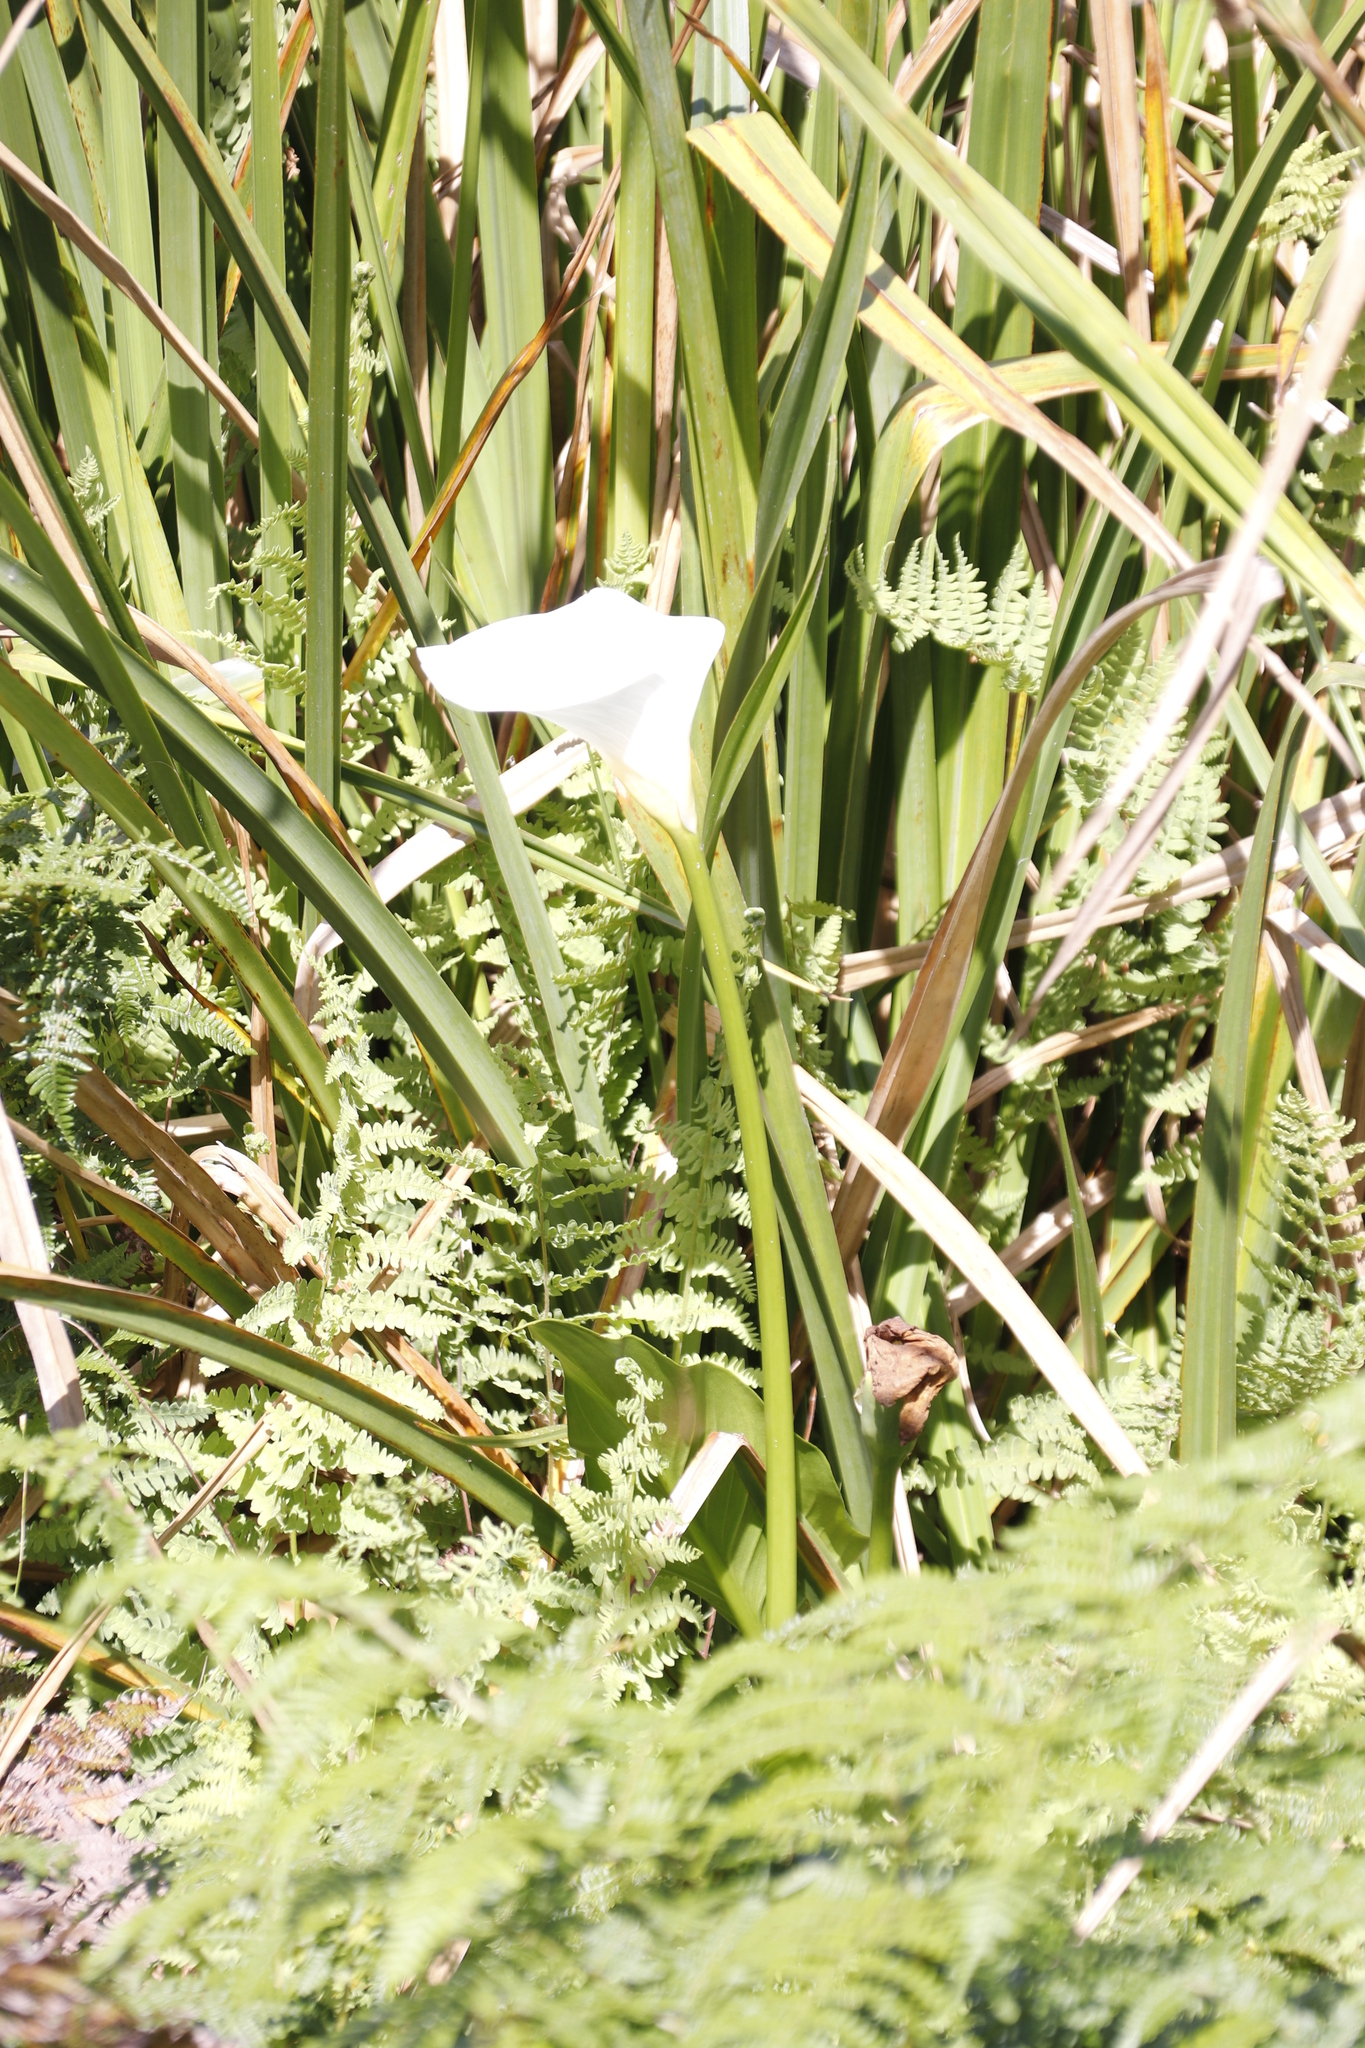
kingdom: Plantae
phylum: Tracheophyta
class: Liliopsida
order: Alismatales
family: Araceae
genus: Zantedeschia
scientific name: Zantedeschia aethiopica
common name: Altar-lily
